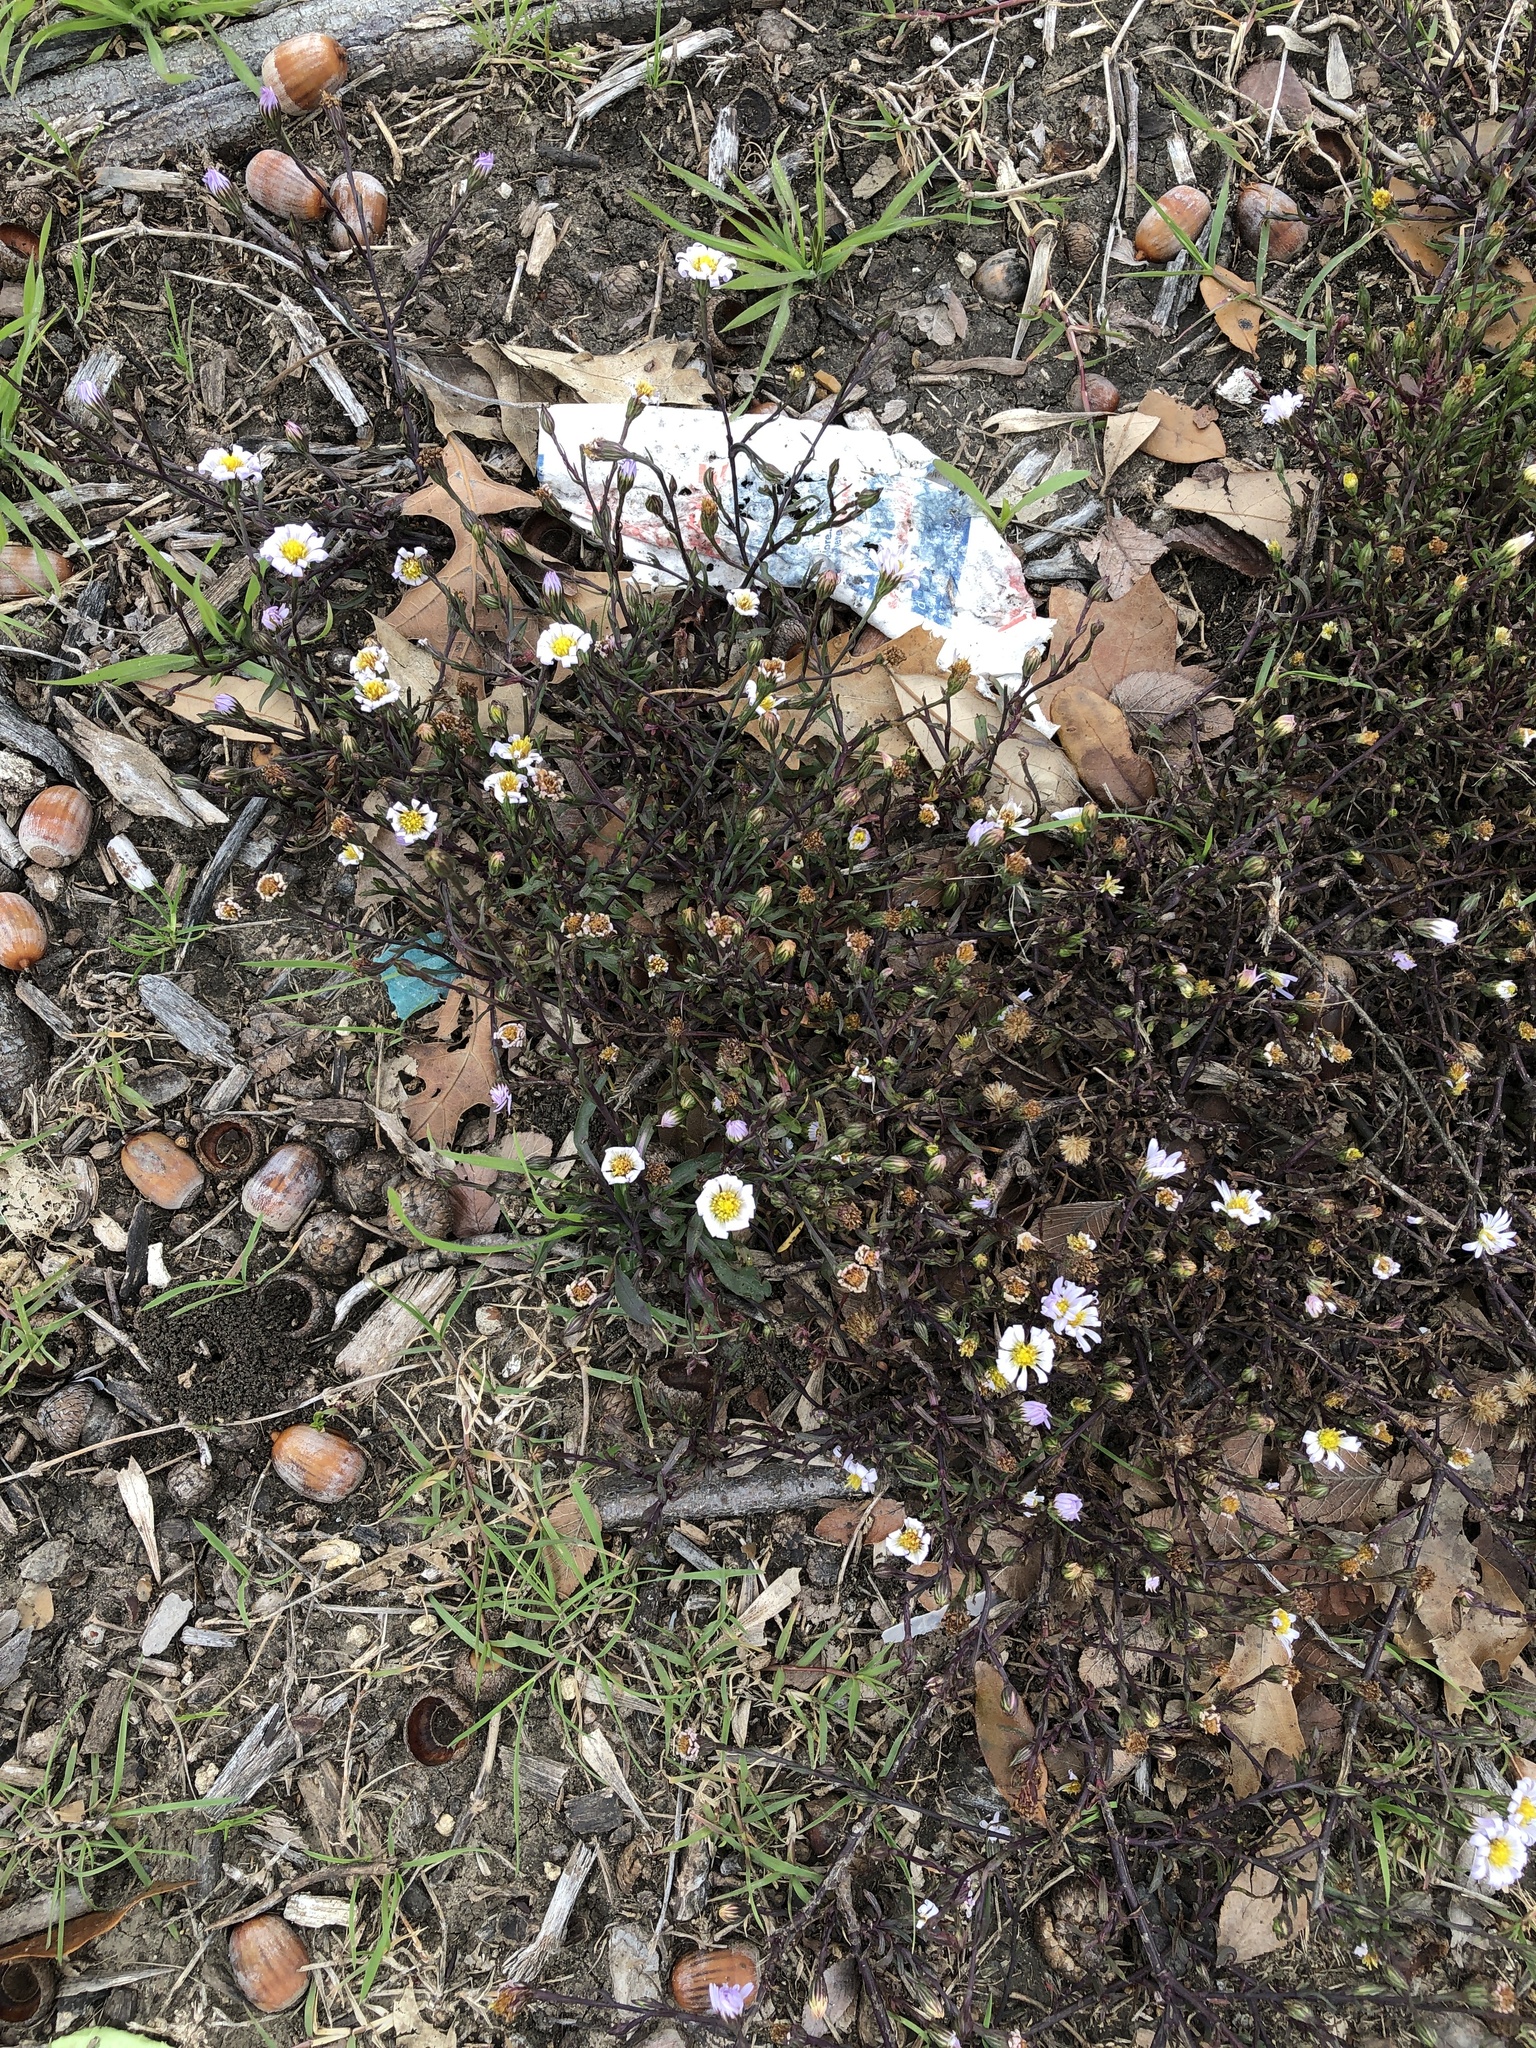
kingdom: Plantae
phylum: Tracheophyta
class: Magnoliopsida
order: Asterales
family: Asteraceae
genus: Symphyotrichum
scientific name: Symphyotrichum divaricatum
